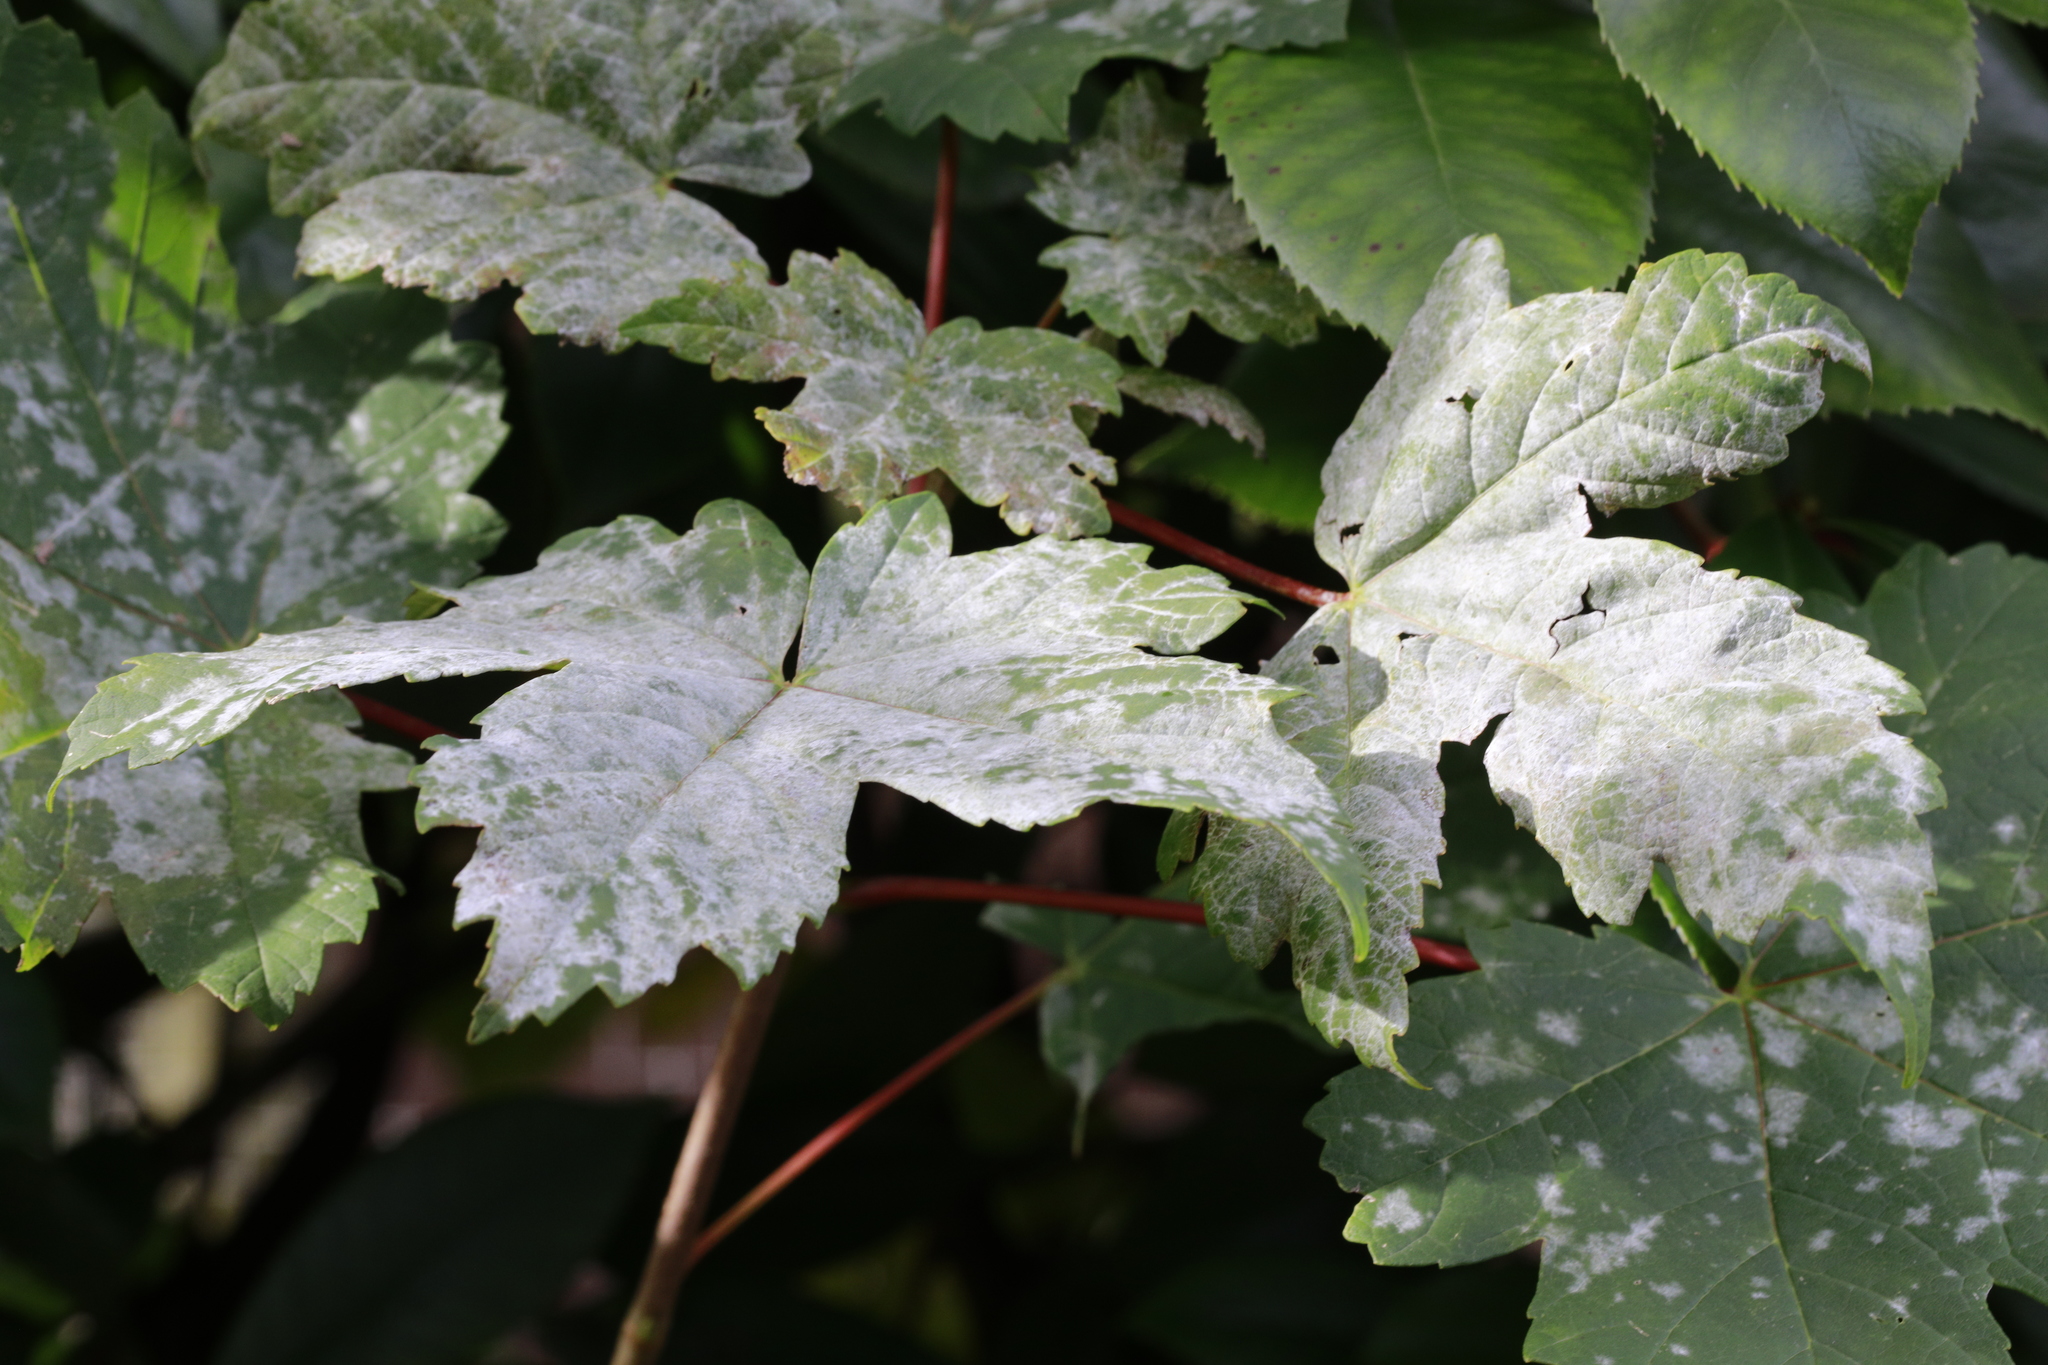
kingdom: Fungi
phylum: Ascomycota
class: Leotiomycetes
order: Helotiales
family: Erysiphaceae
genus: Sawadaea
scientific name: Sawadaea bicornis
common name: Maple mildew
